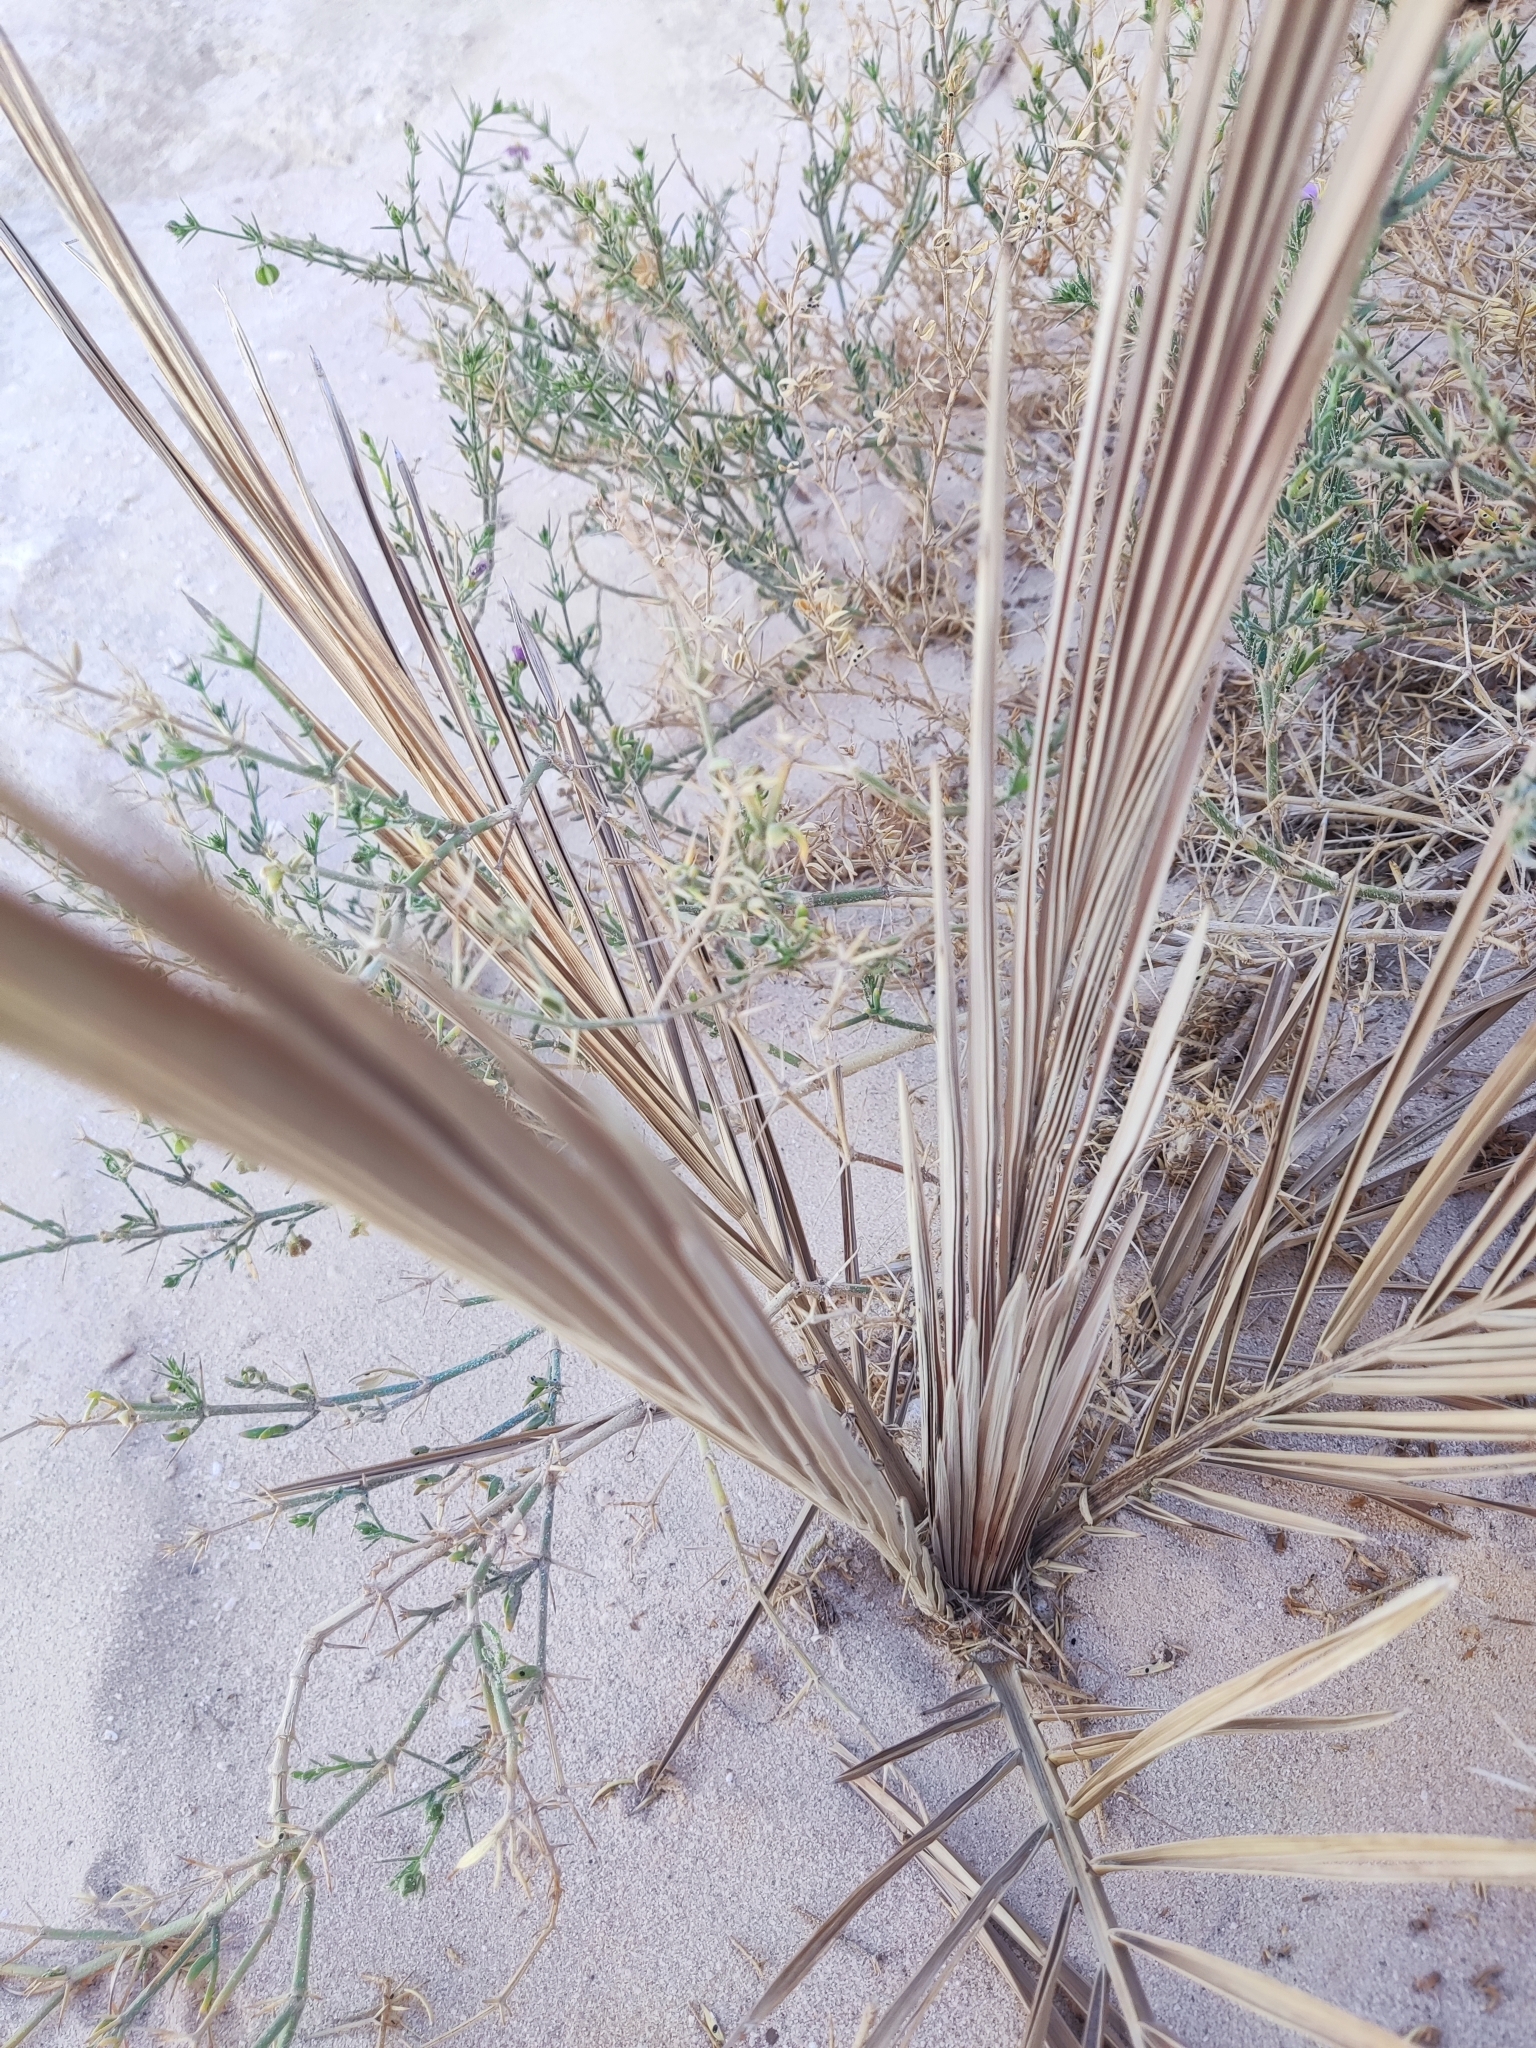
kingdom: Plantae
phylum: Tracheophyta
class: Liliopsida
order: Arecales
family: Arecaceae
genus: Phoenix
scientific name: Phoenix dactylifera
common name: Date palm
